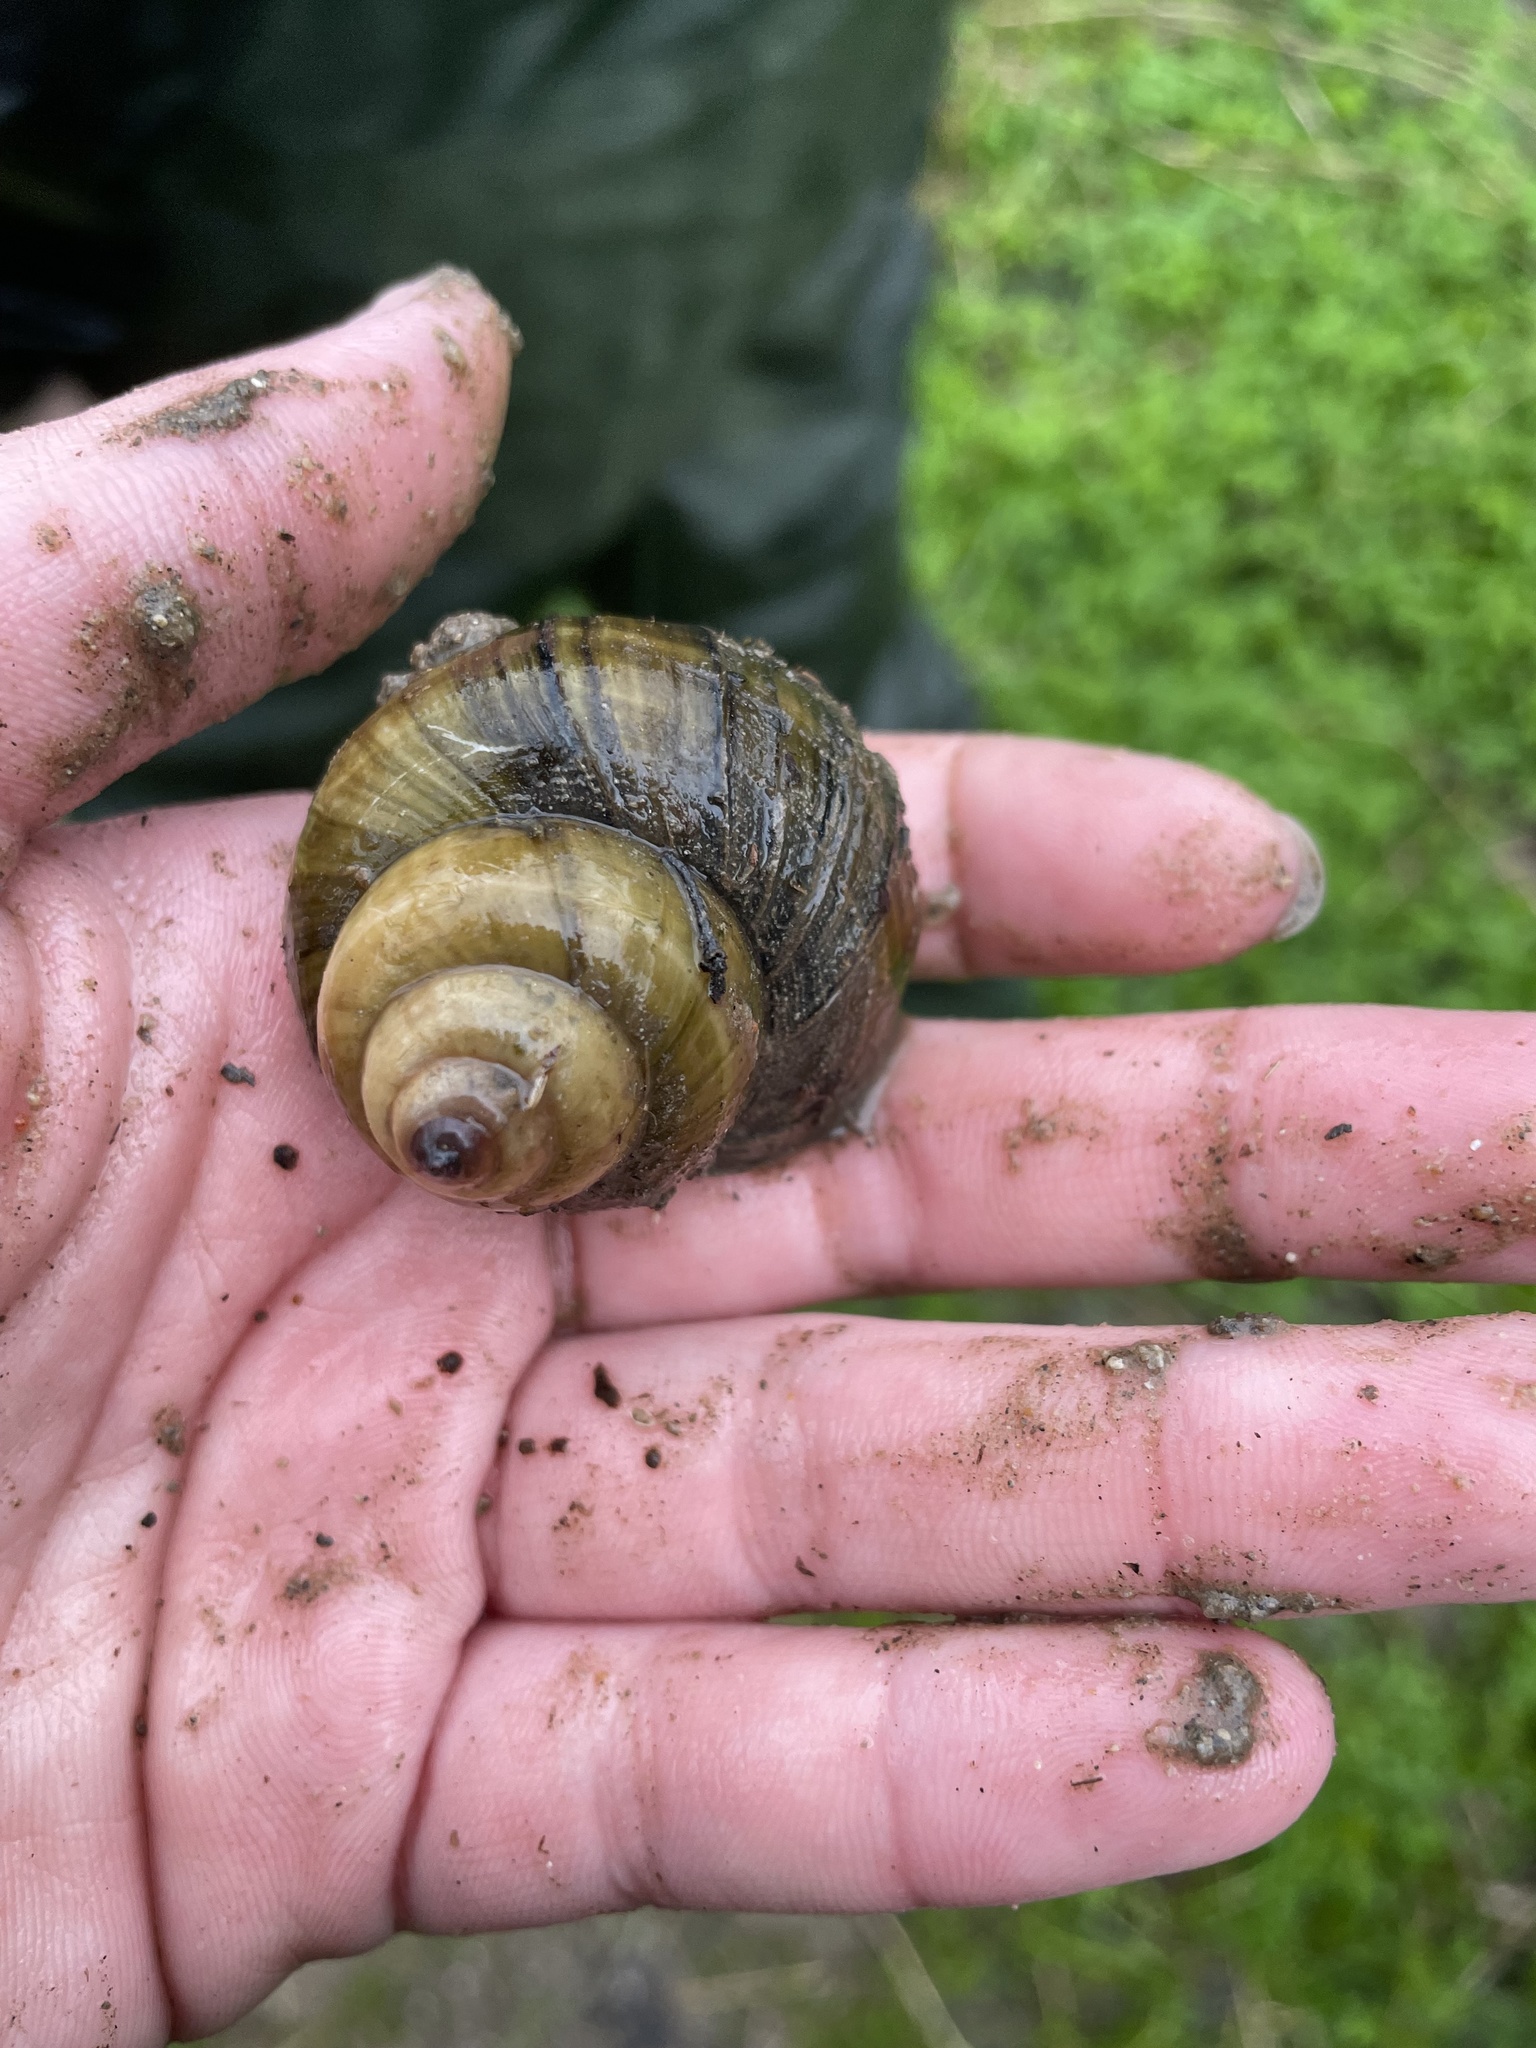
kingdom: Animalia
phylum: Mollusca
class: Gastropoda
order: Architaenioglossa
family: Viviparidae
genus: Cipangopaludina
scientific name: Cipangopaludina chinensis
